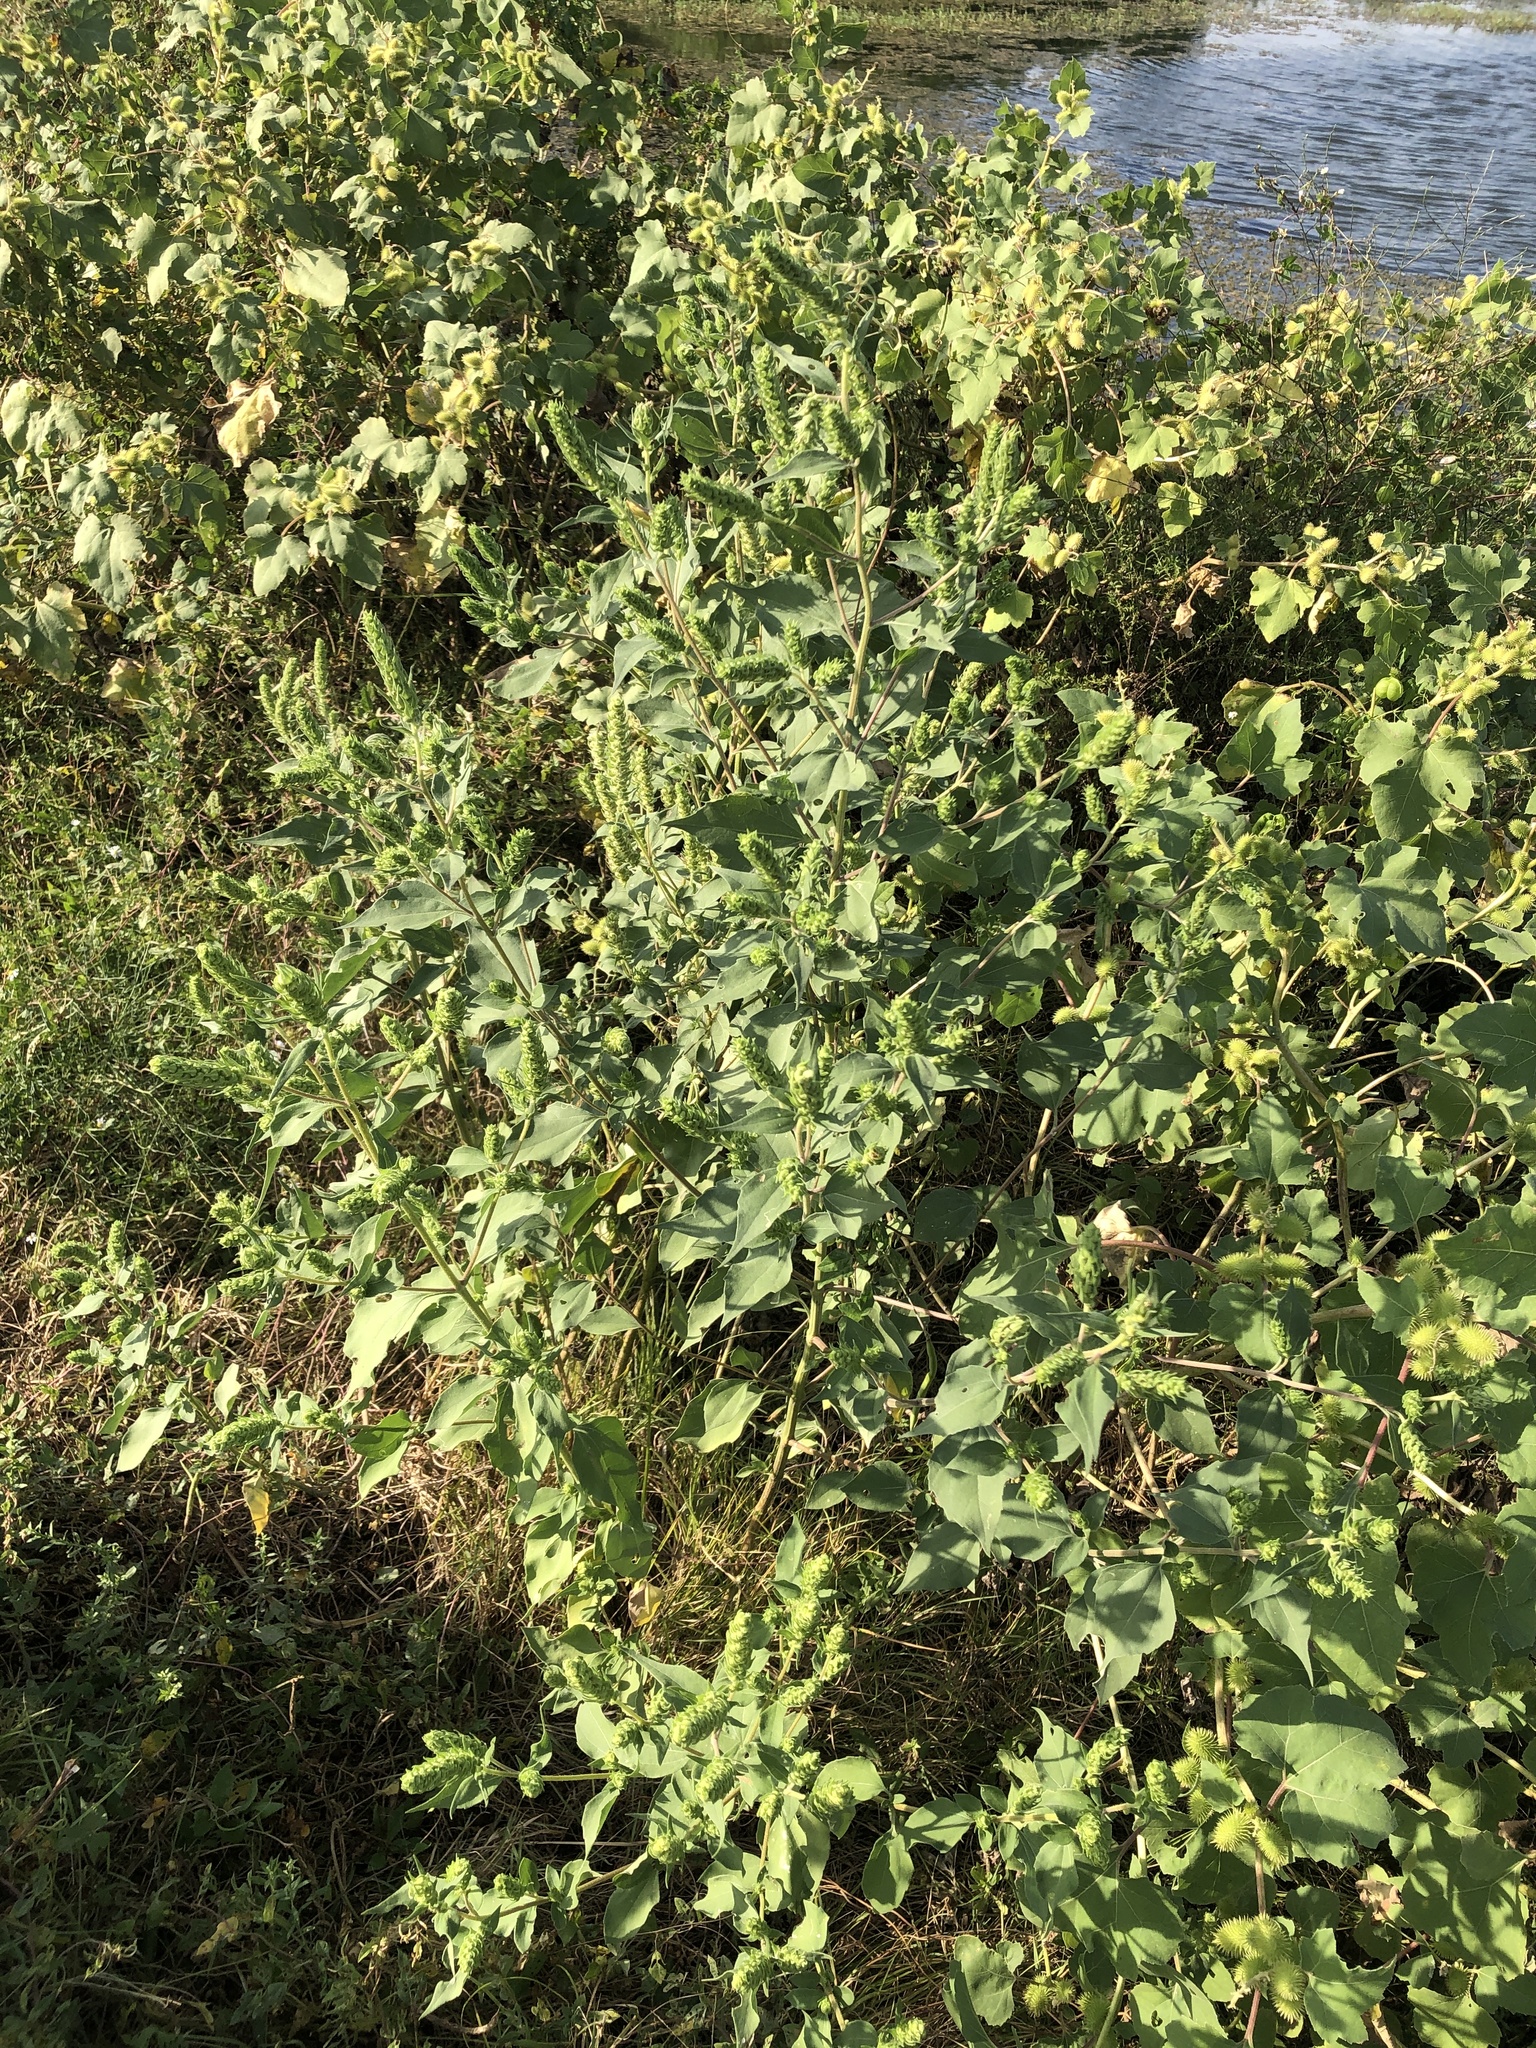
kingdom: Plantae
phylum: Tracheophyta
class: Magnoliopsida
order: Asterales
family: Asteraceae
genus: Iva
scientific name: Iva annua
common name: Marsh-elder
